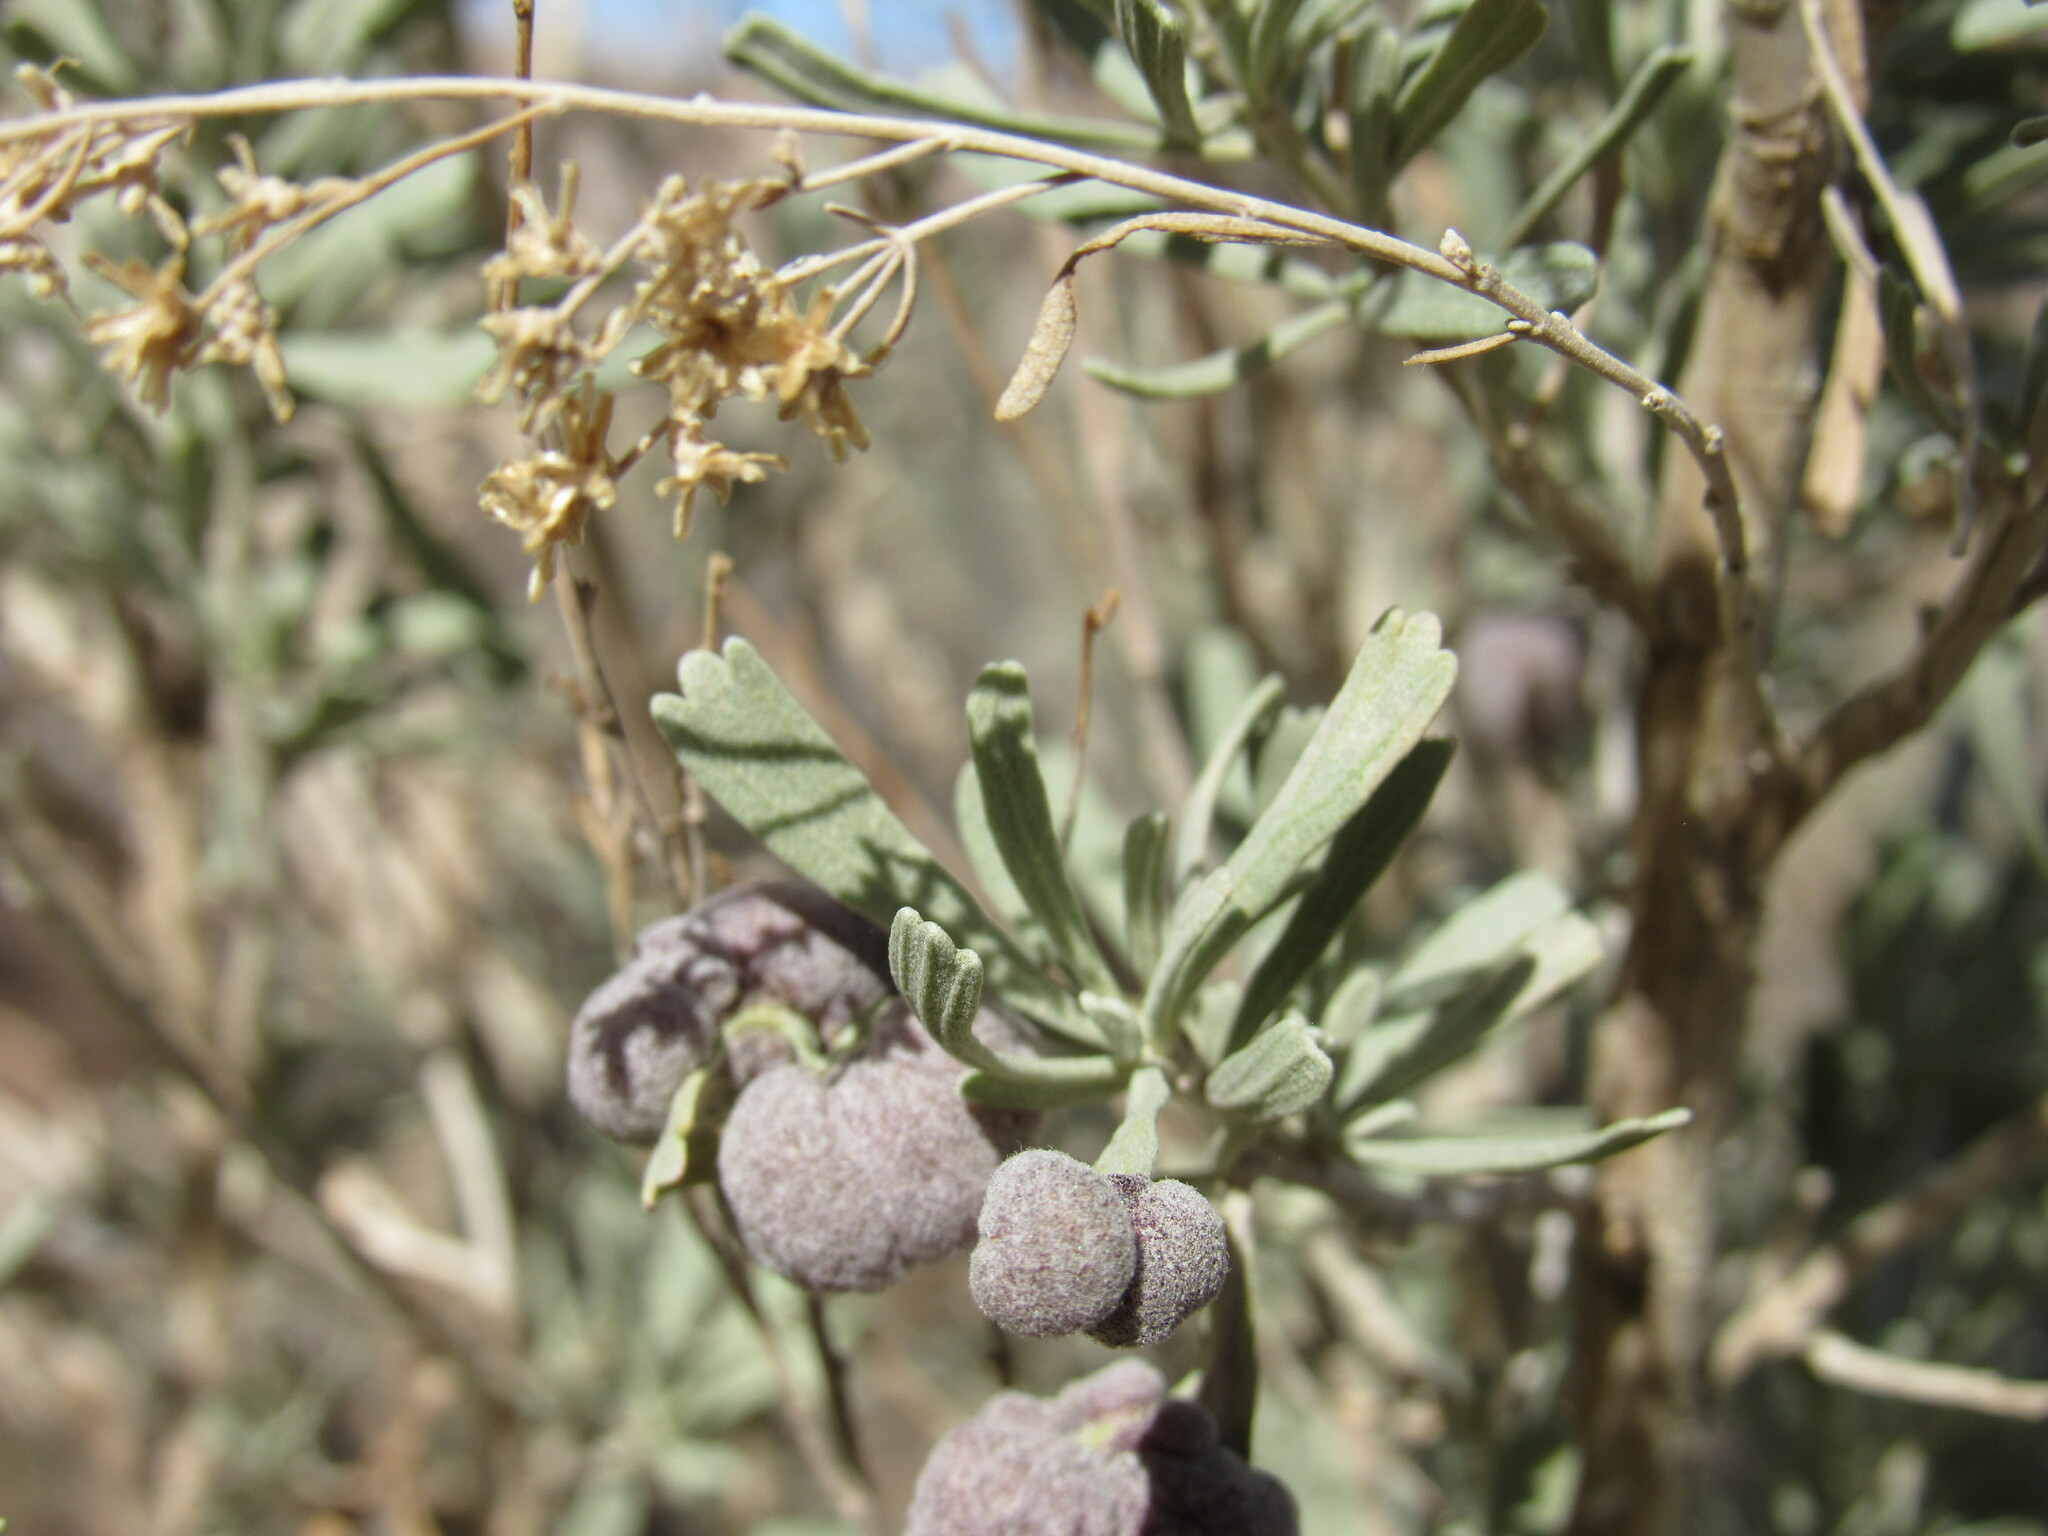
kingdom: Plantae
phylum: Tracheophyta
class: Magnoliopsida
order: Asterales
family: Asteraceae
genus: Artemisia
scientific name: Artemisia tridentata
